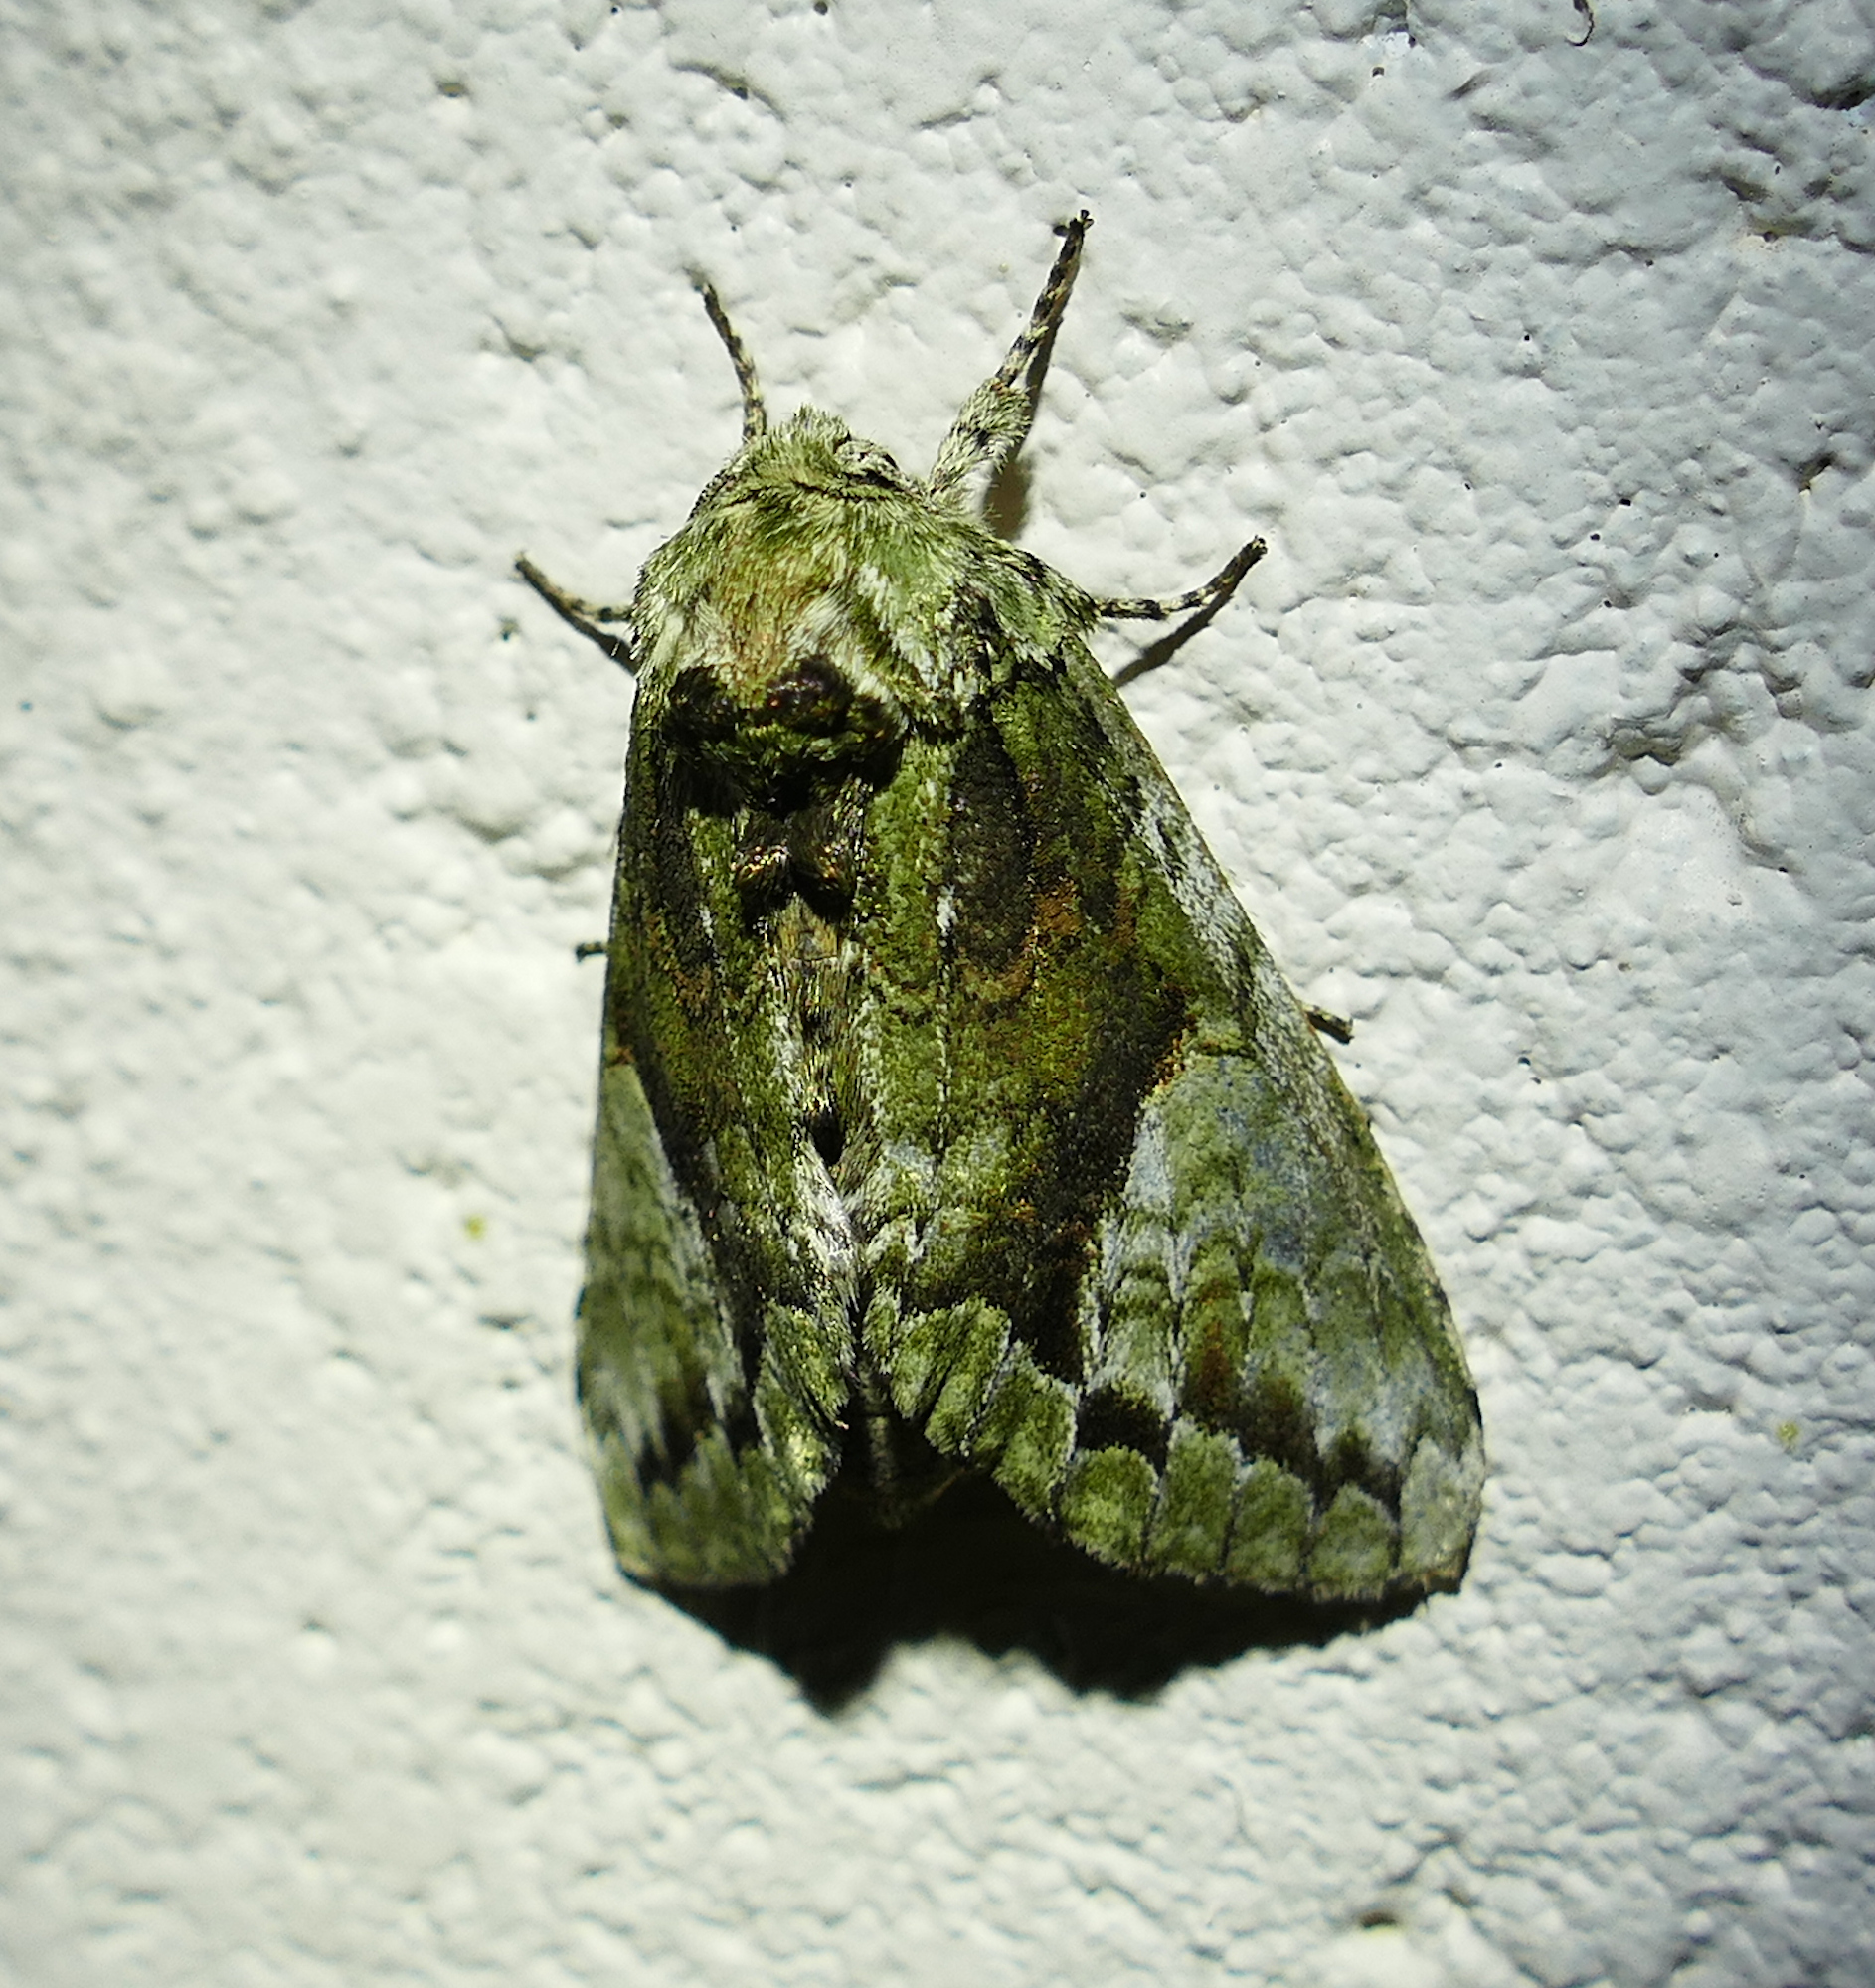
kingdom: Animalia
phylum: Arthropoda
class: Insecta
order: Lepidoptera
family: Notodontidae
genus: Heterocampa
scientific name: Heterocampa
